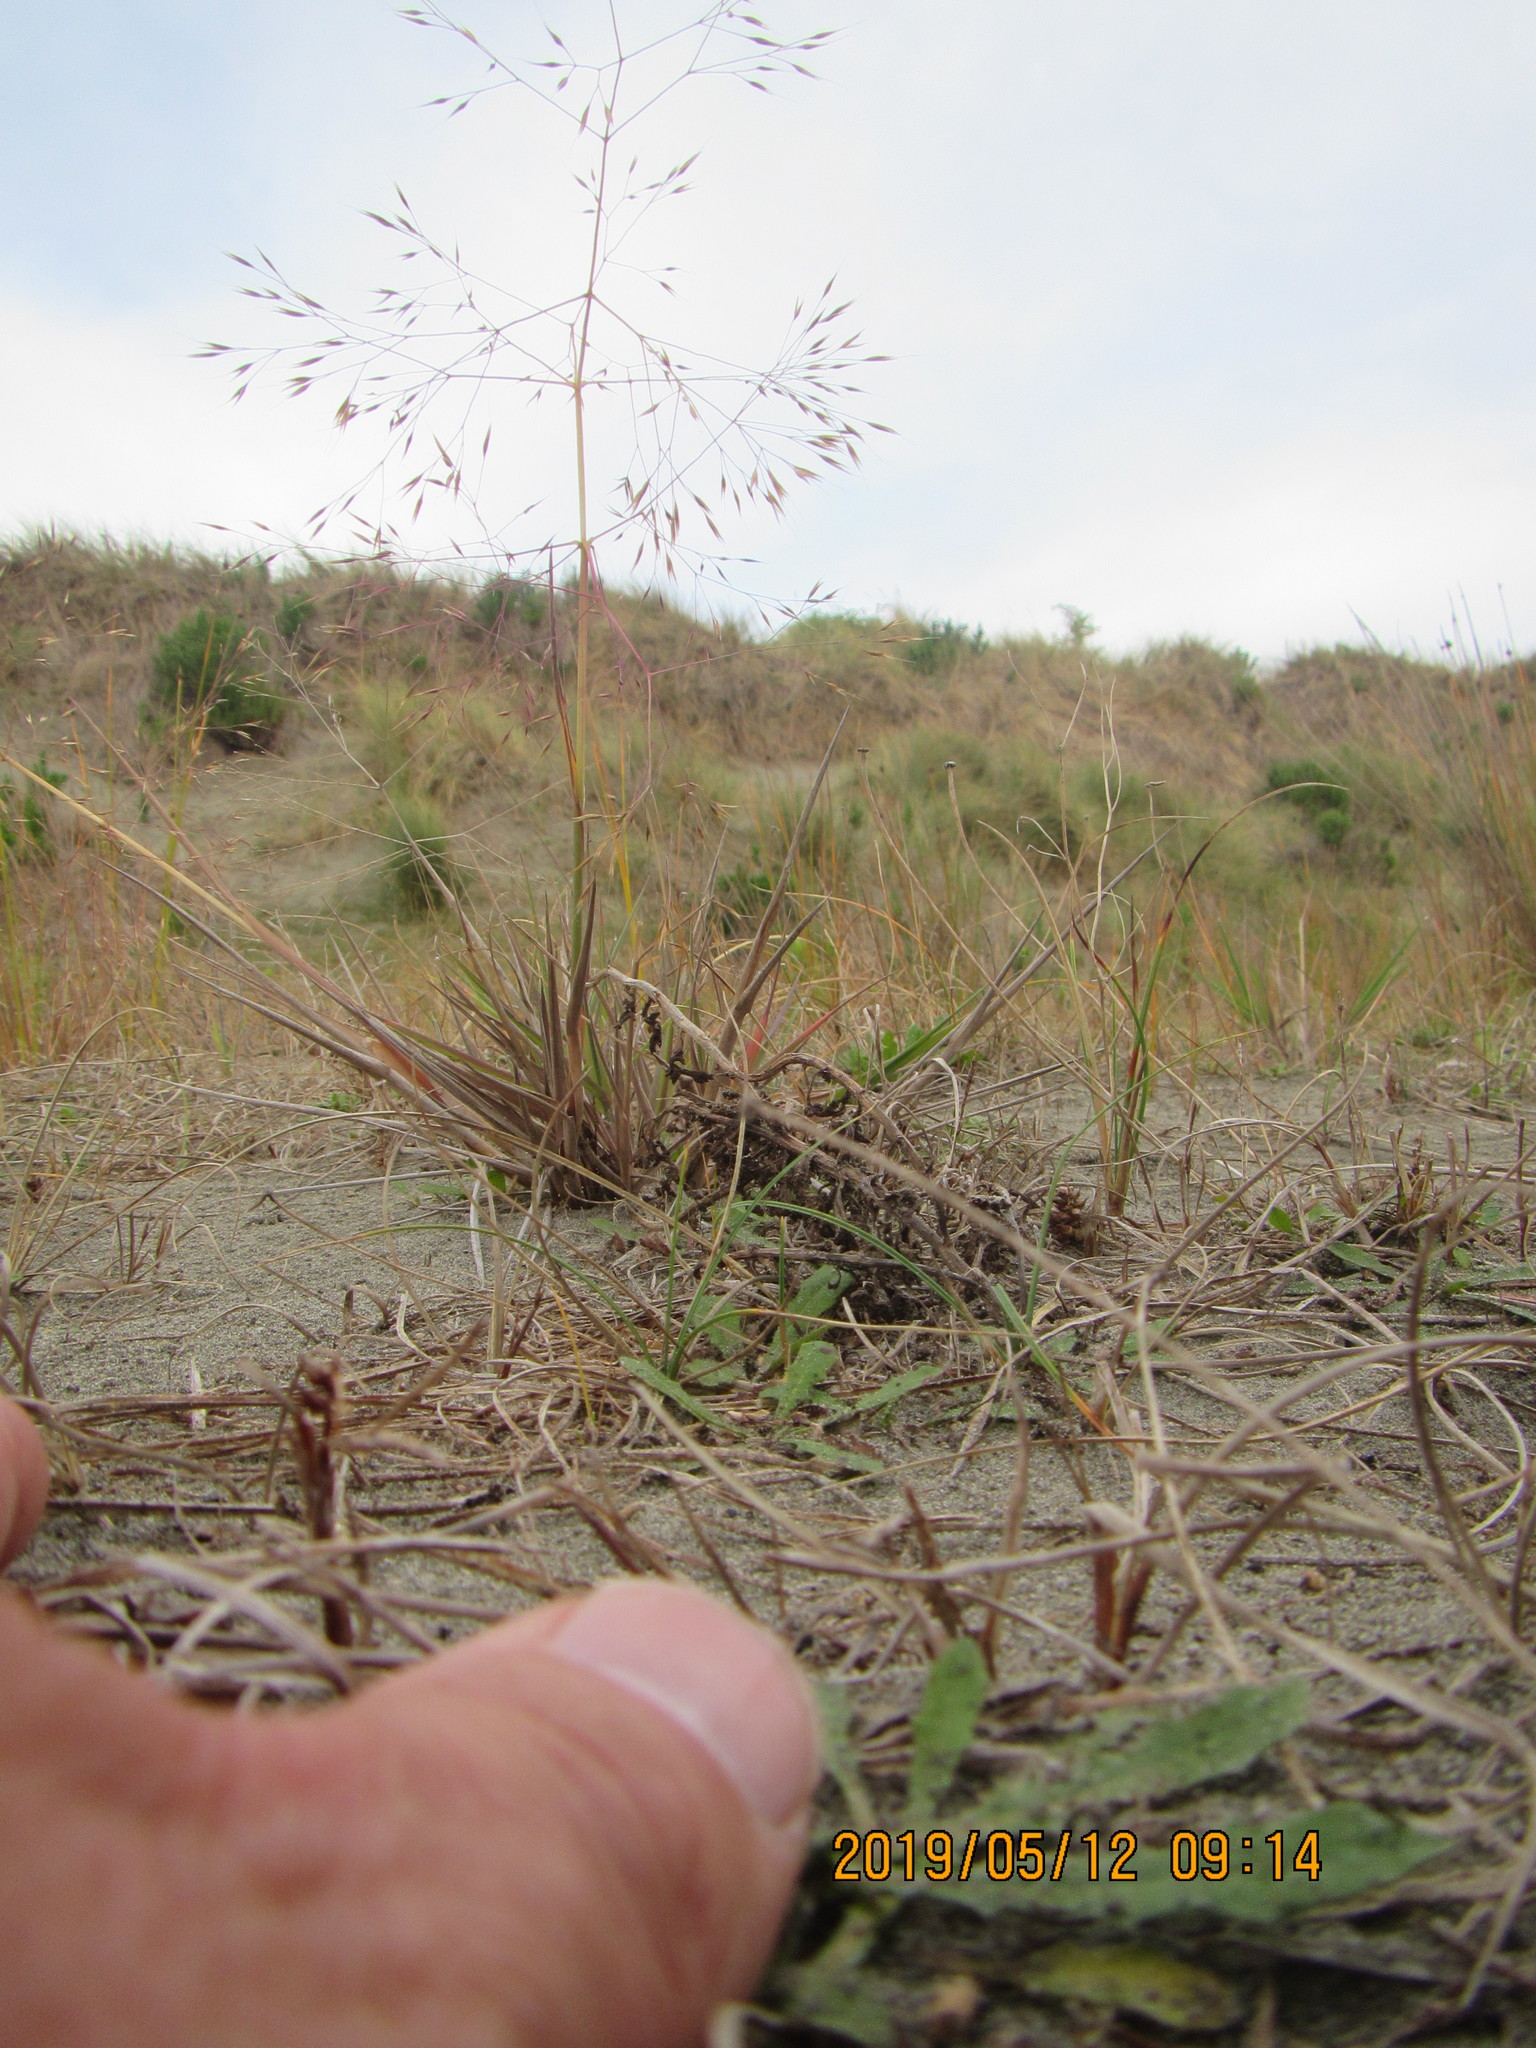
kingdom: Plantae
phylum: Tracheophyta
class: Liliopsida
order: Poales
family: Poaceae
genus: Lachnagrostis
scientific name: Lachnagrostis billardierei
